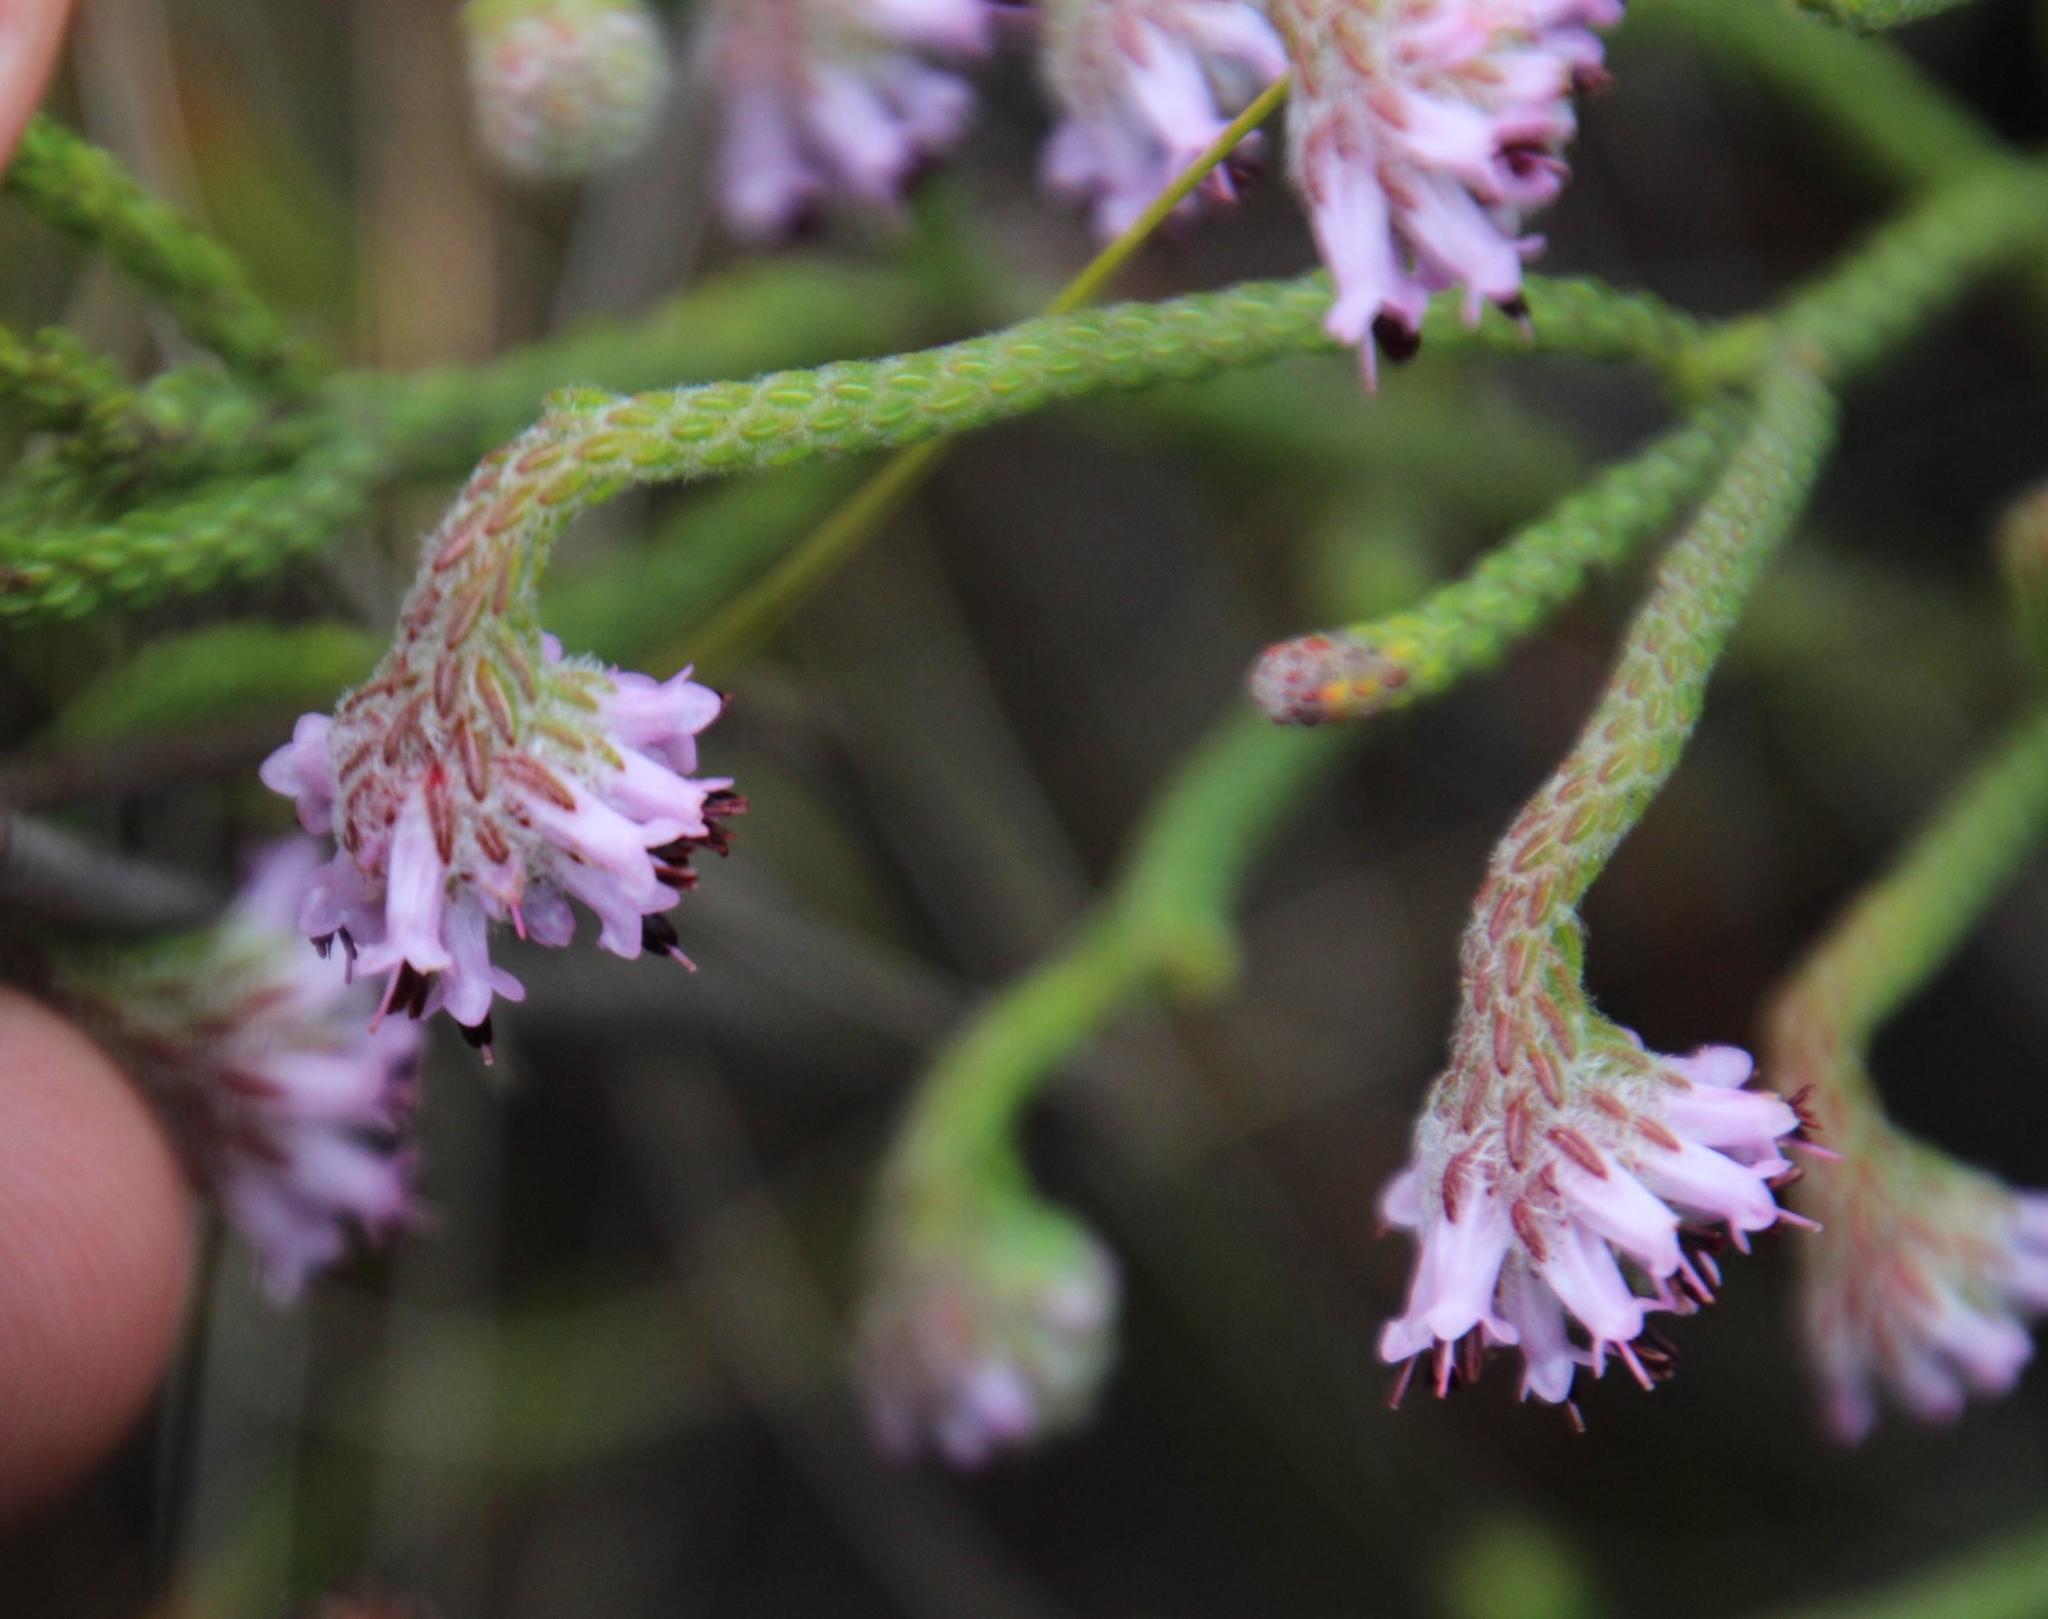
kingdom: Plantae
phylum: Tracheophyta
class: Magnoliopsida
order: Ericales
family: Ericaceae
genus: Erica
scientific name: Erica barbigeroides
